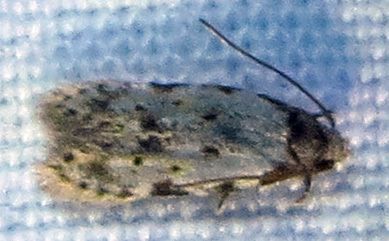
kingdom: Animalia
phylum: Arthropoda
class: Insecta
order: Lepidoptera
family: Autostichidae
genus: Taygete
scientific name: Taygete attributella
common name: Triangle-marked twirler moth
